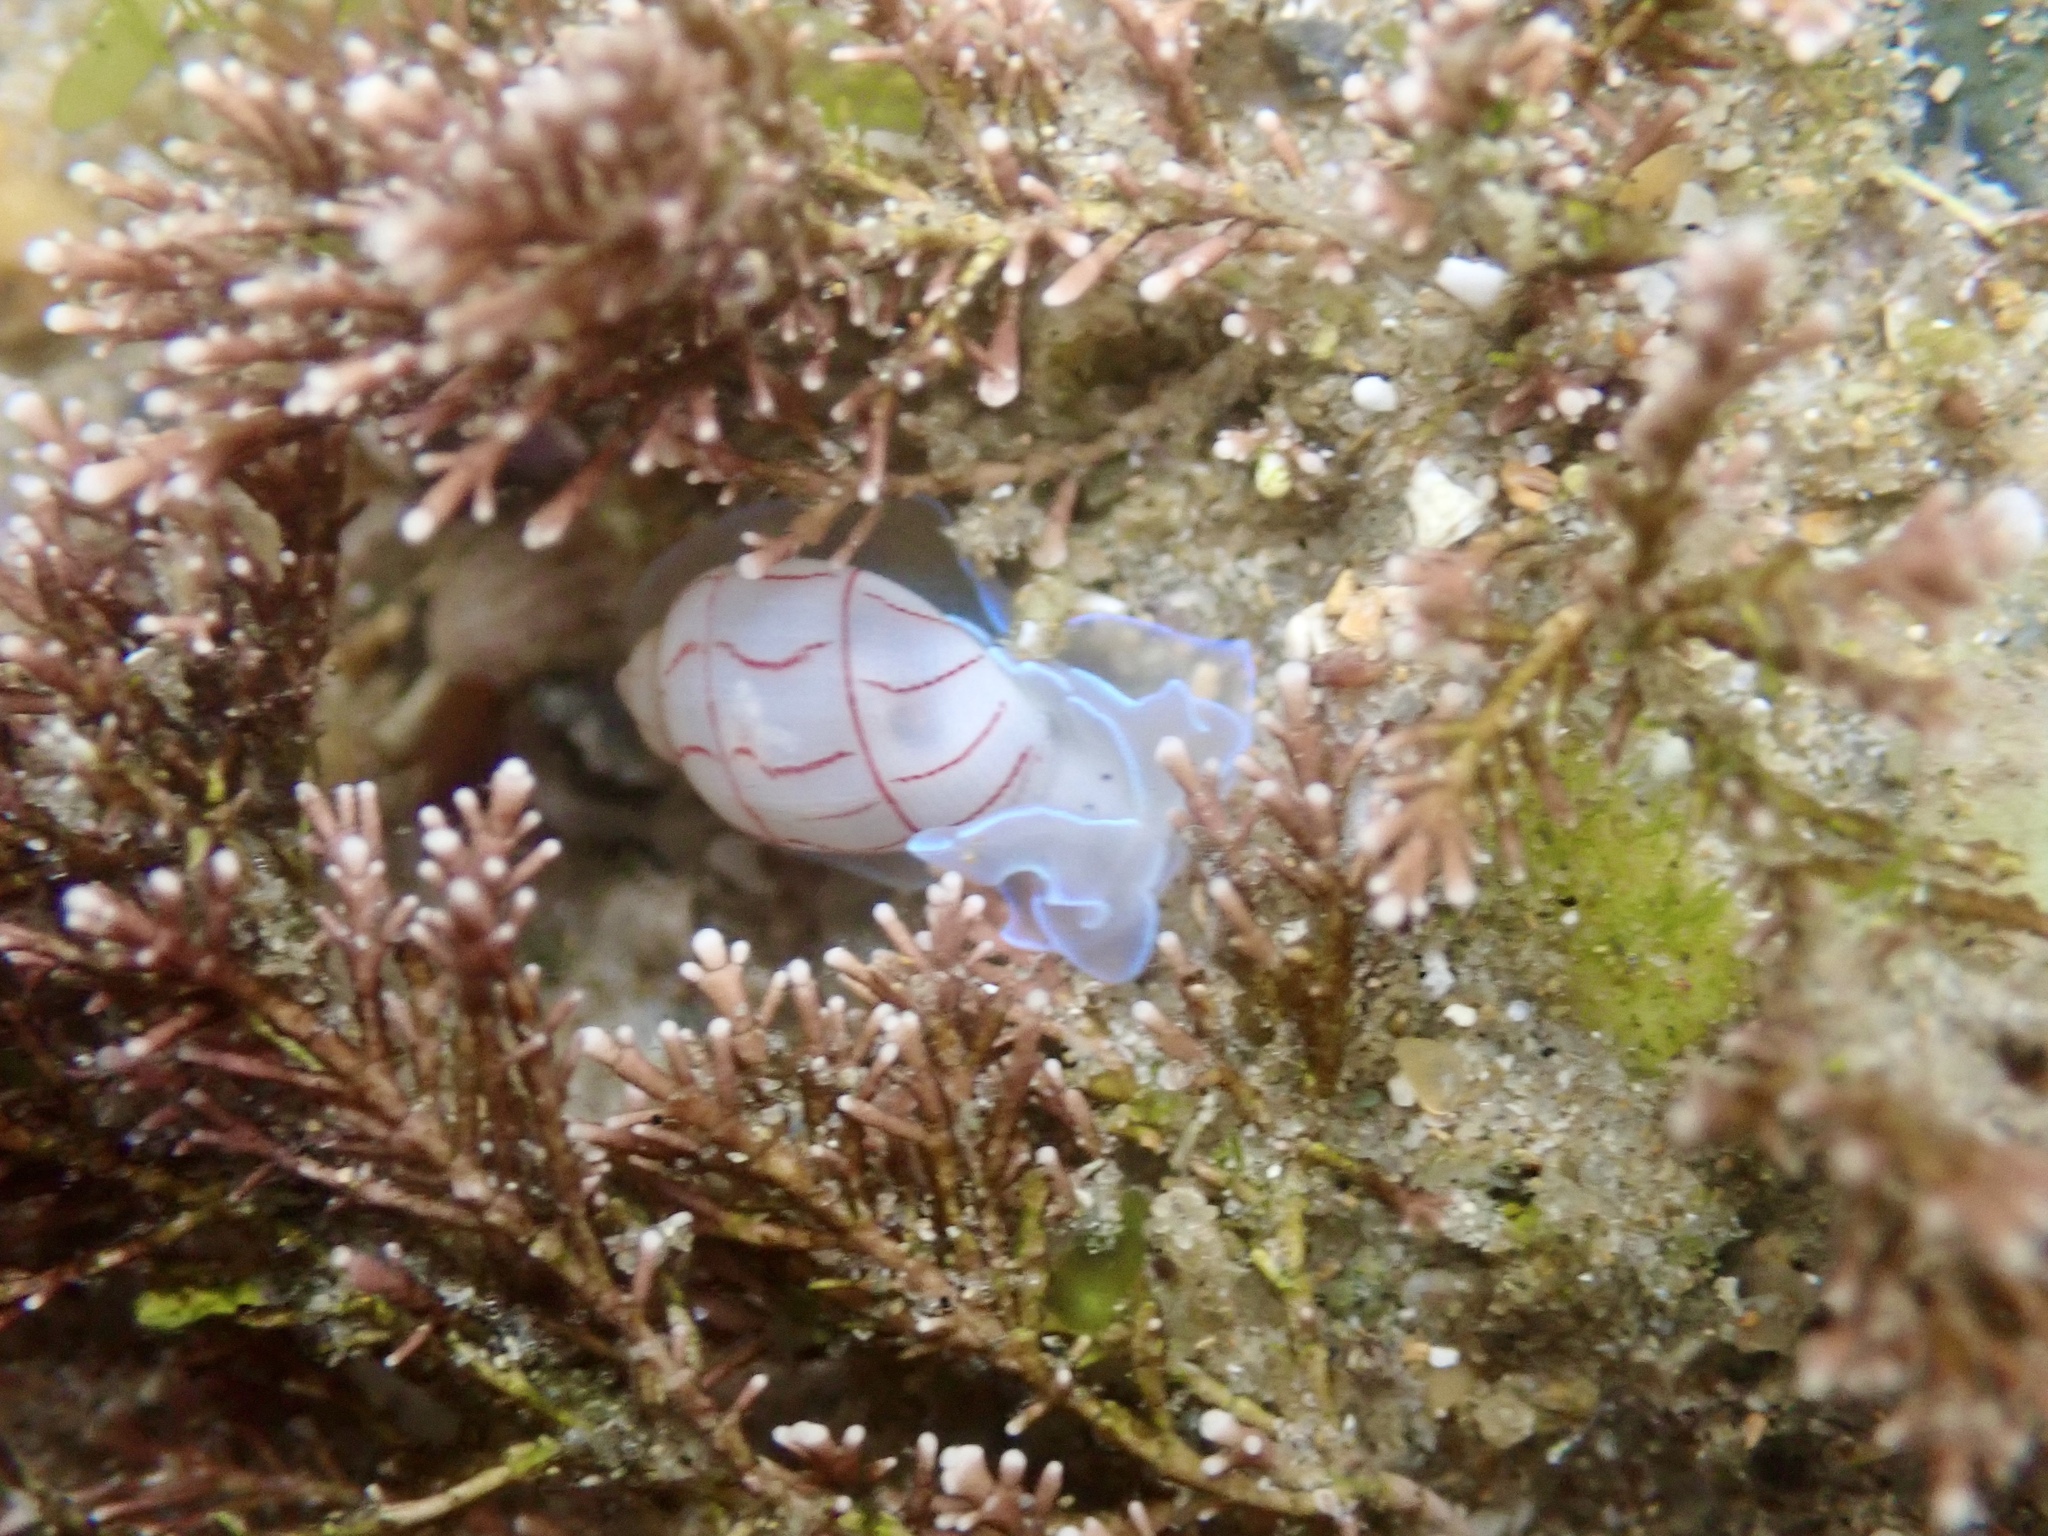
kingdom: Animalia
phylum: Mollusca
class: Gastropoda
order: Cephalaspidea
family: Aplustridae
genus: Bullina
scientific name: Bullina lineata
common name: Lined bubble snail
